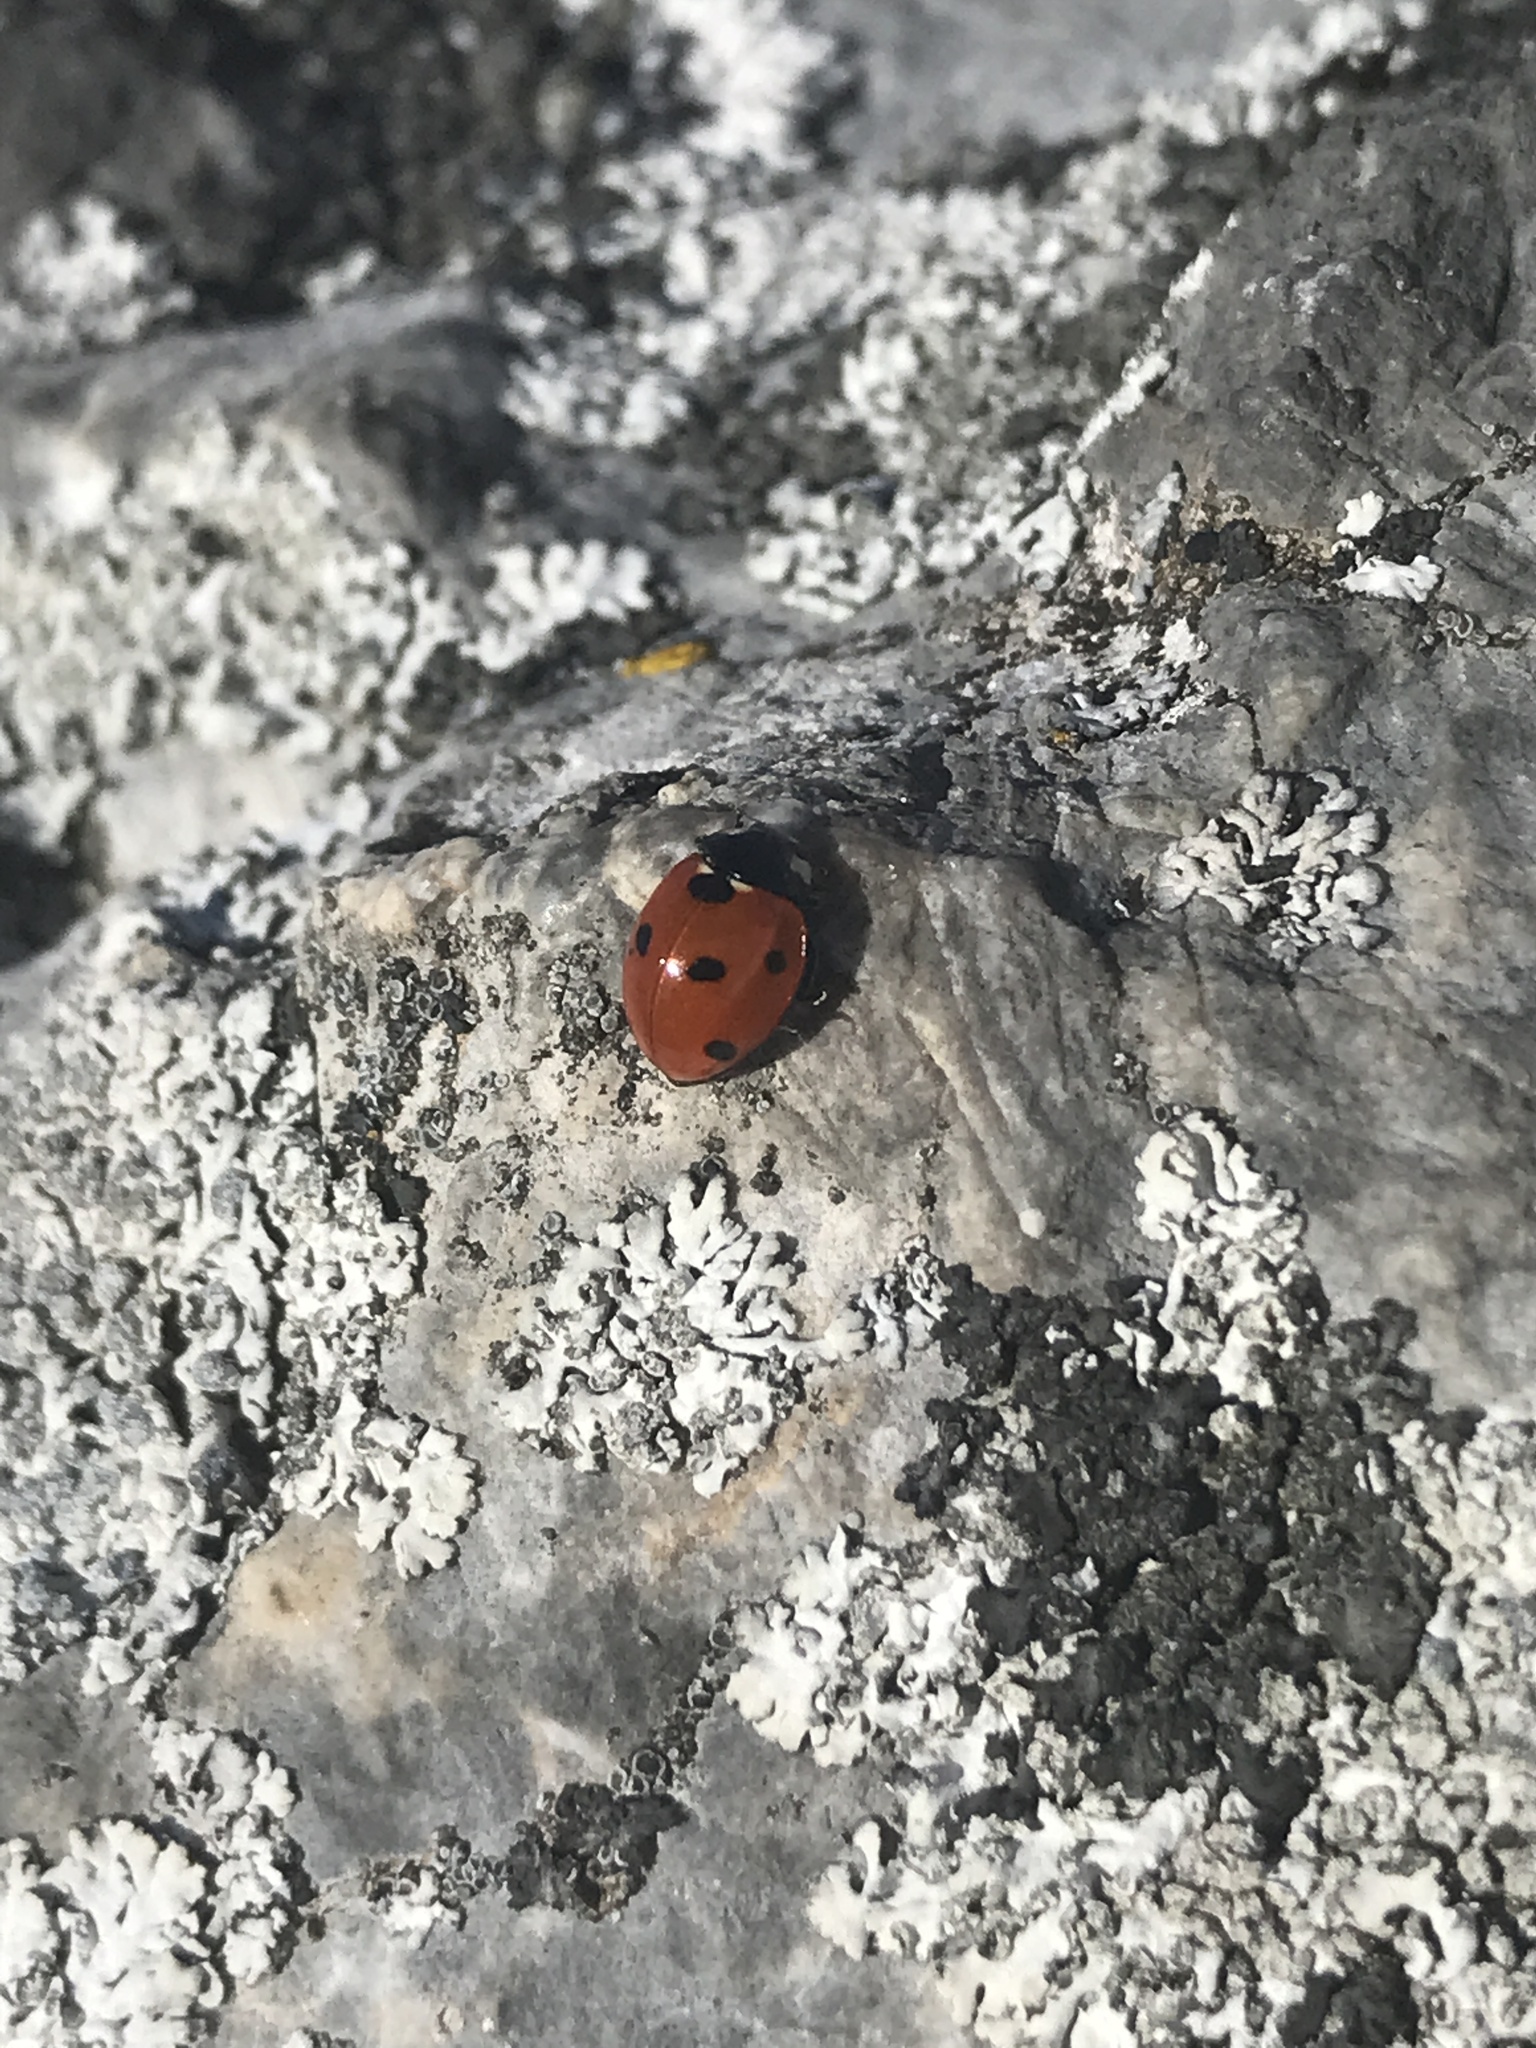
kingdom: Animalia
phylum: Arthropoda
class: Insecta
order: Coleoptera
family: Coccinellidae
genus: Coccinella
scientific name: Coccinella septempunctata
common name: Sevenspotted lady beetle
